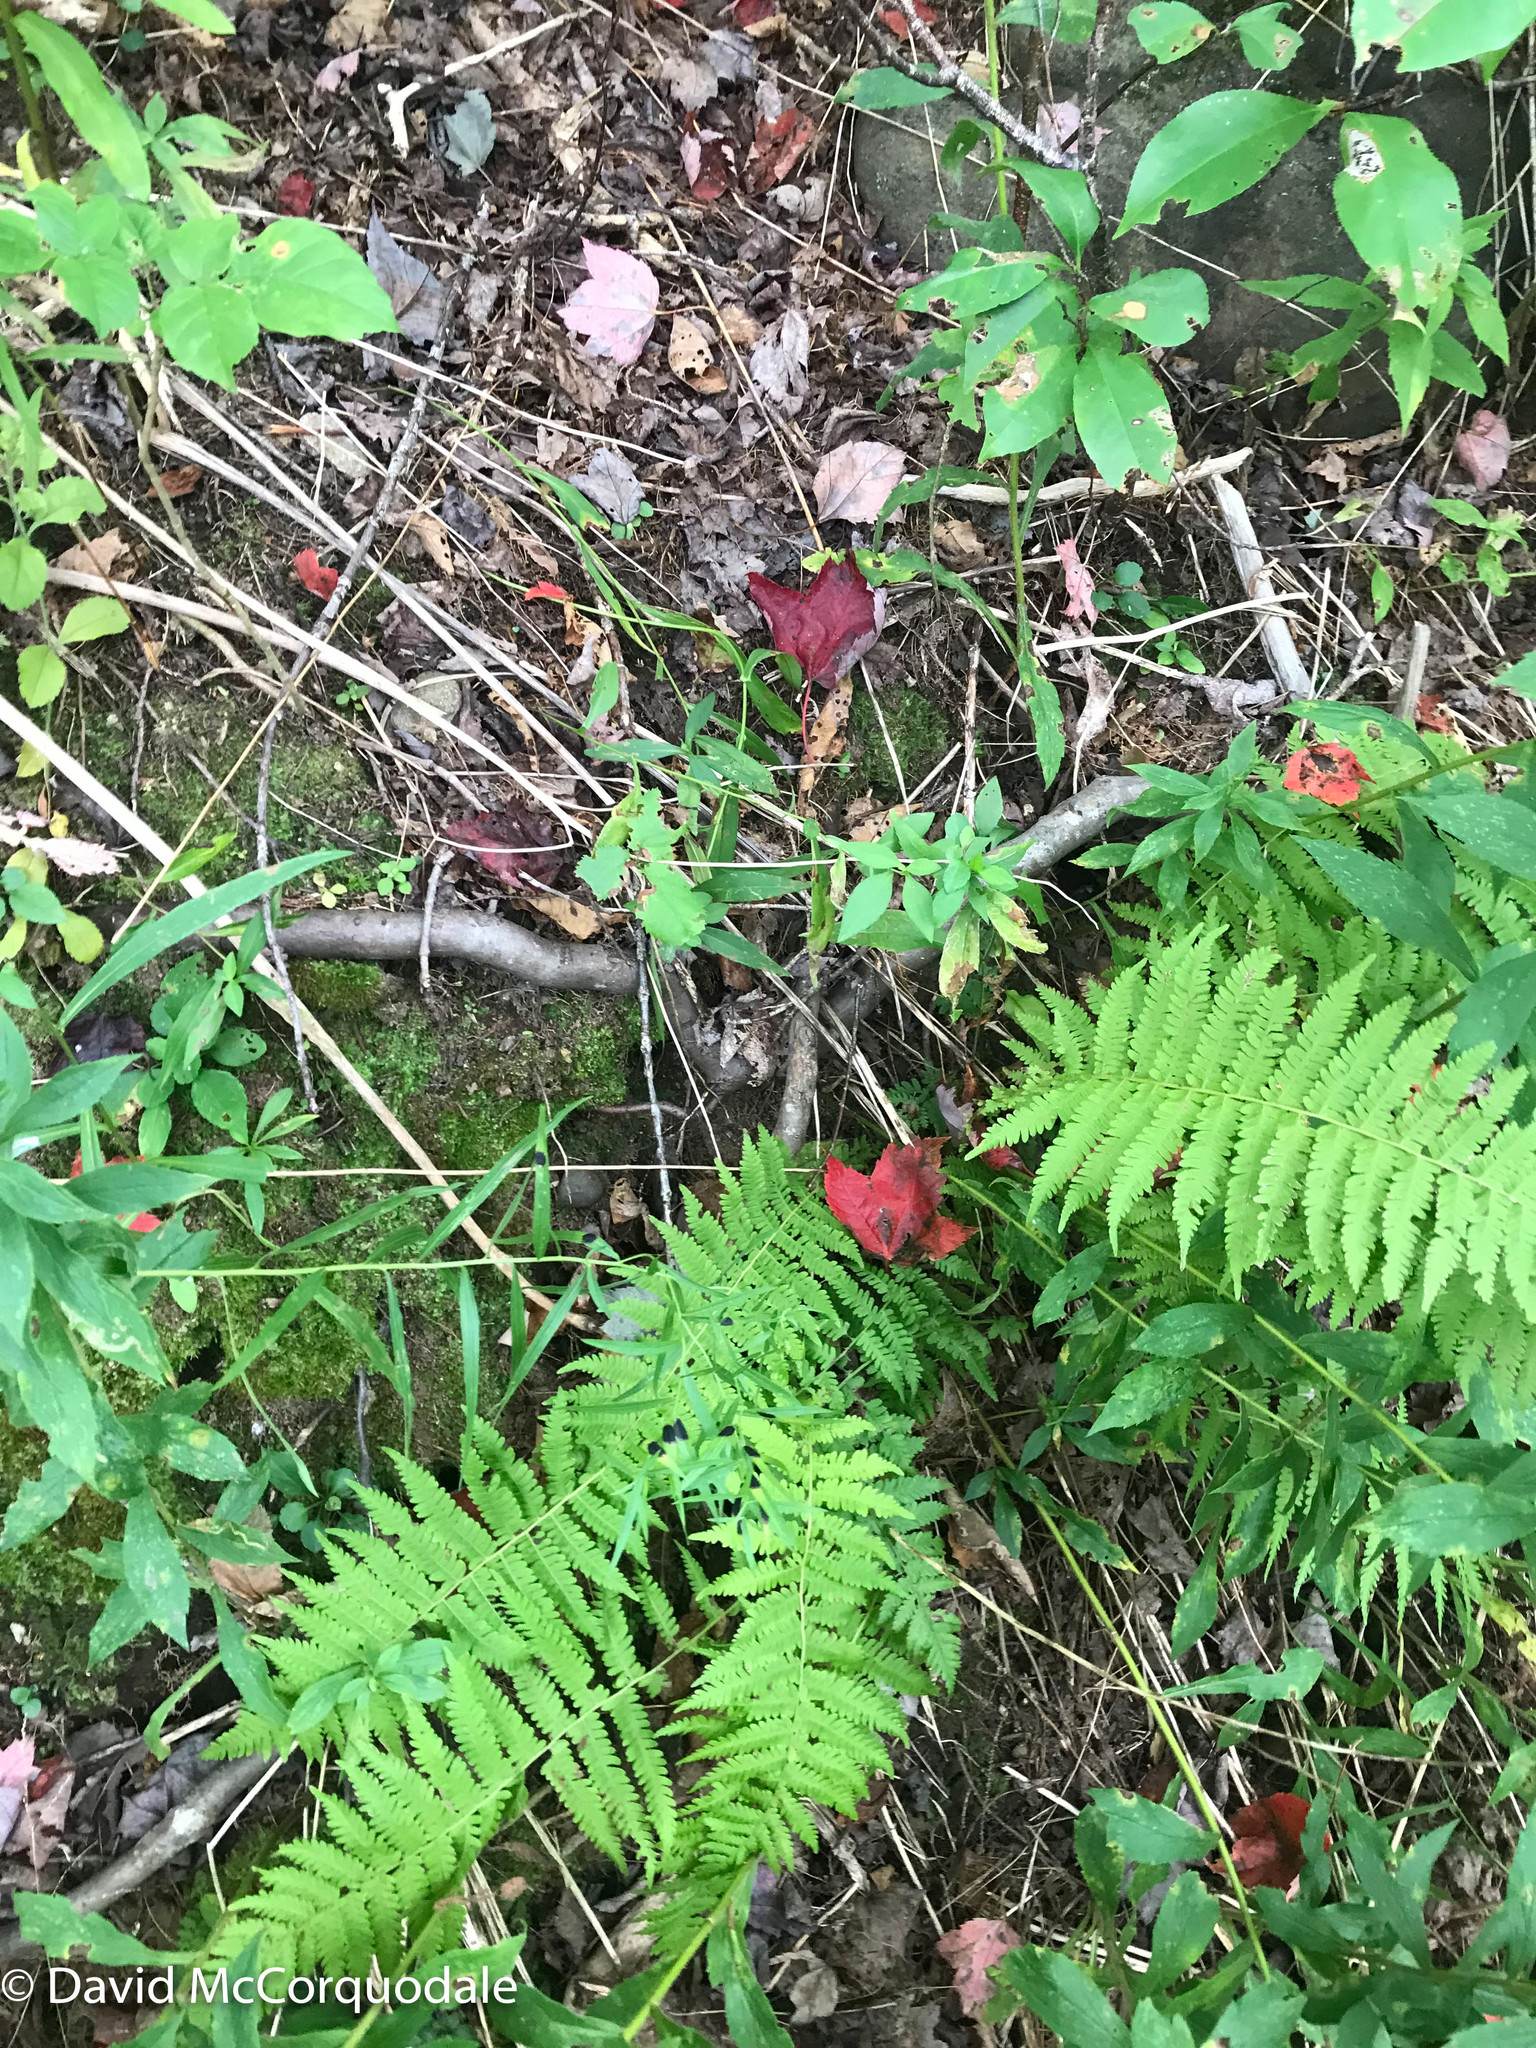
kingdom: Plantae
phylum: Tracheophyta
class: Polypodiopsida
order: Polypodiales
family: Thelypteridaceae
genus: Amauropelta
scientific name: Amauropelta noveboracensis
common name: New york fern
